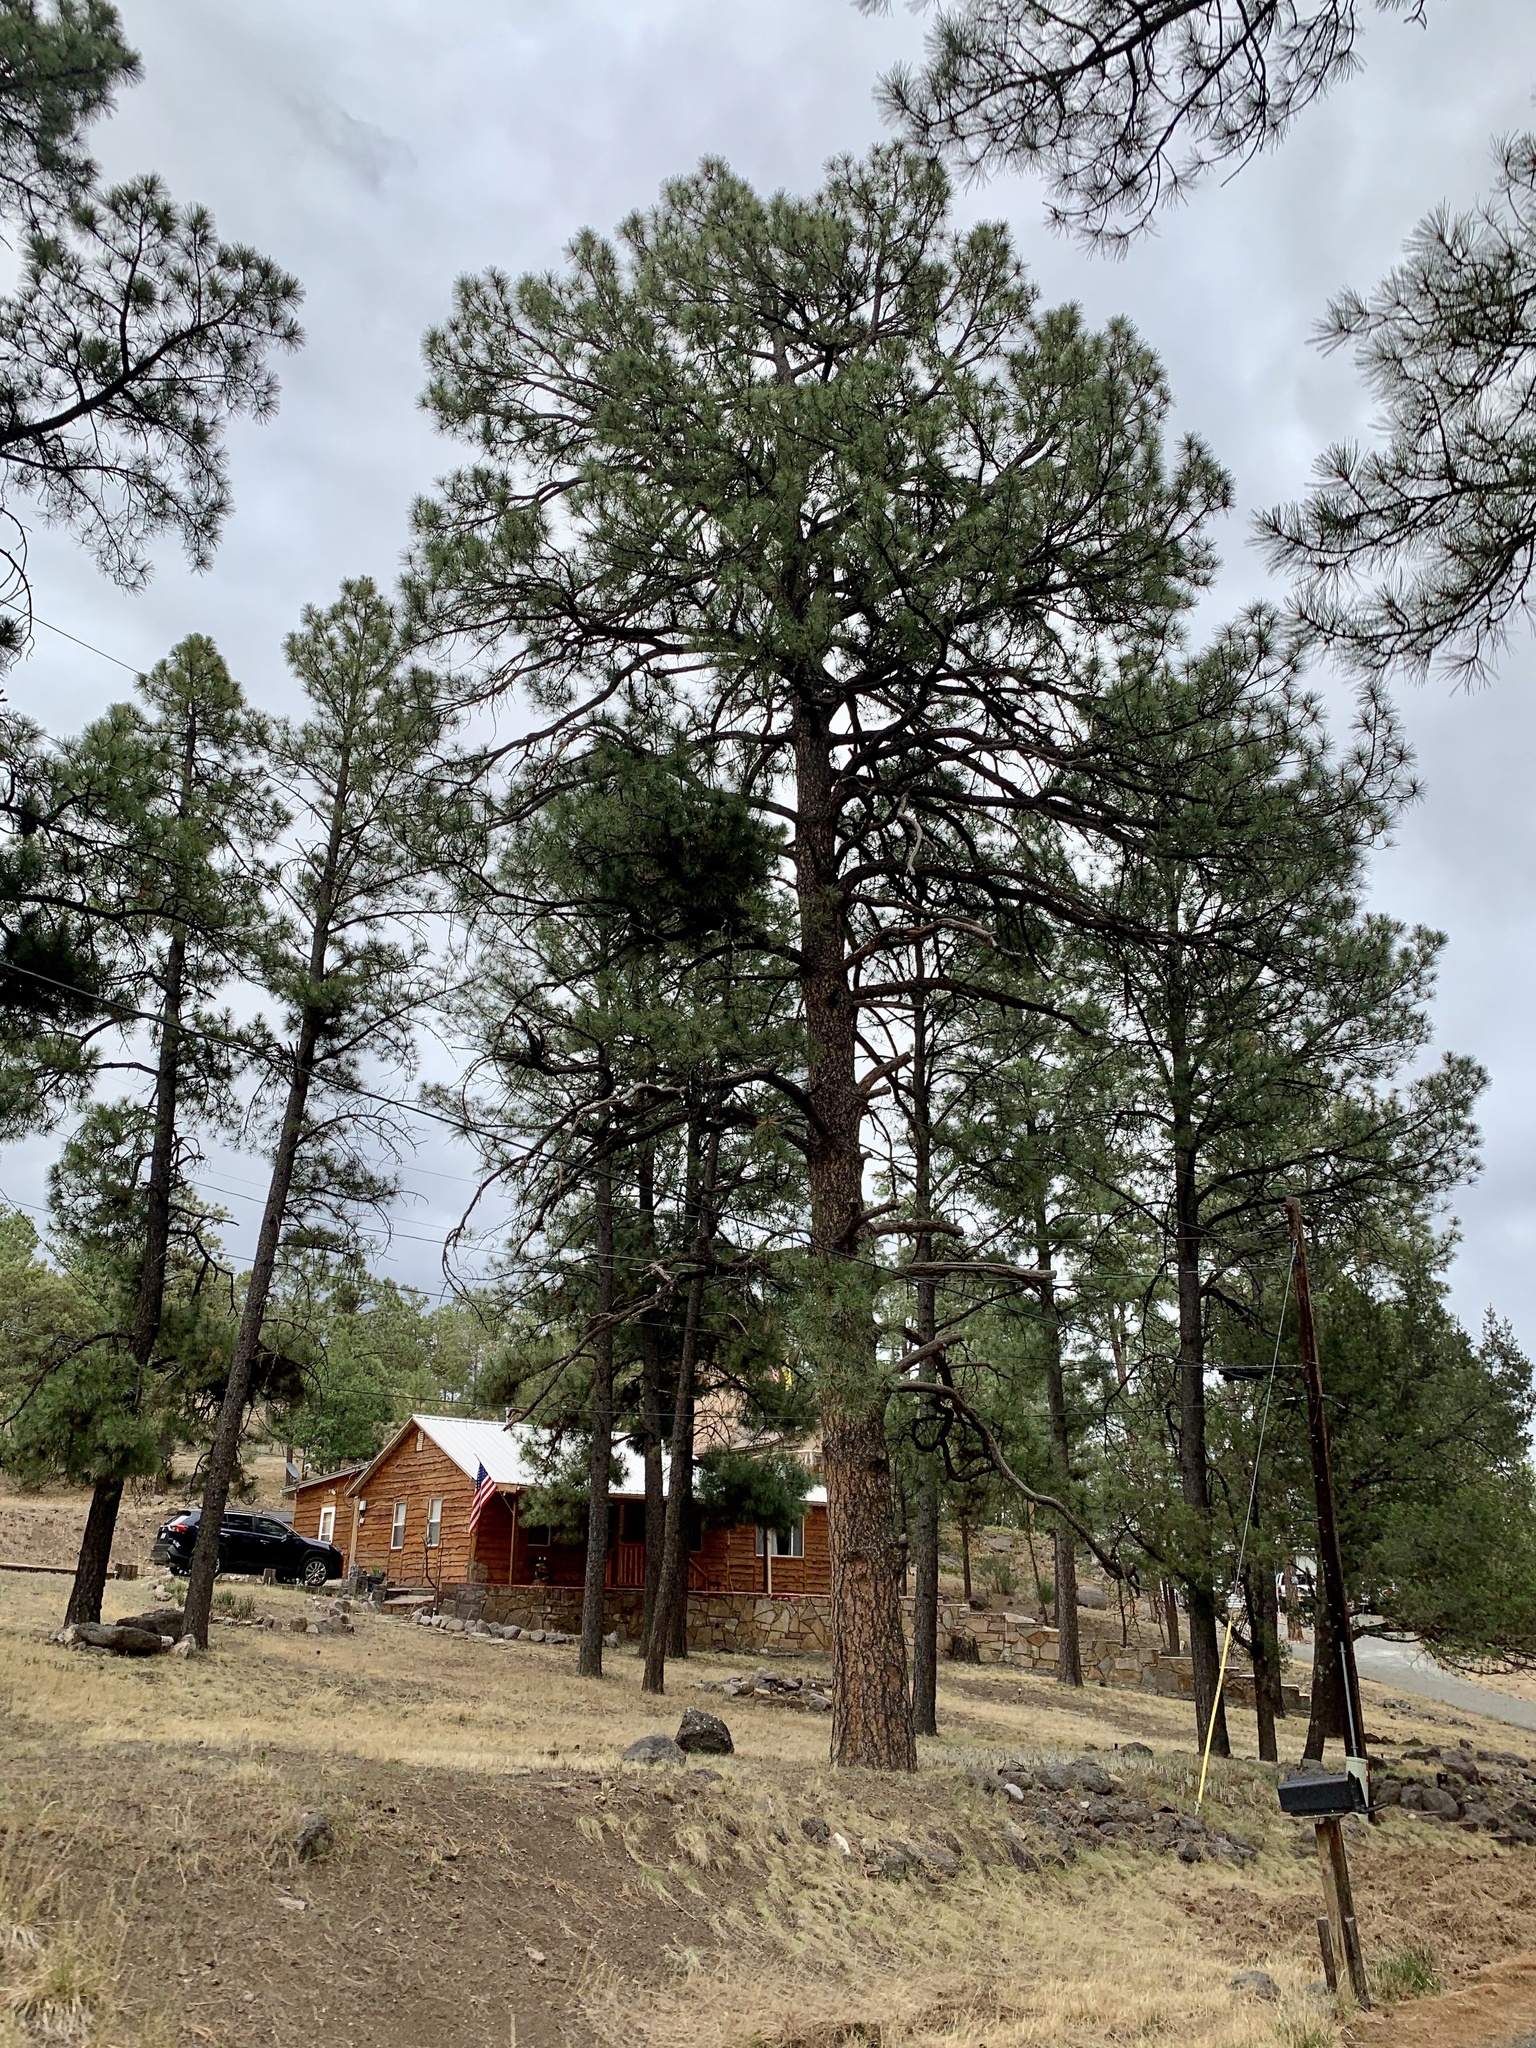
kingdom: Plantae
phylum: Tracheophyta
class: Pinopsida
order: Pinales
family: Pinaceae
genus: Pinus
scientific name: Pinus ponderosa
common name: Western yellow-pine
